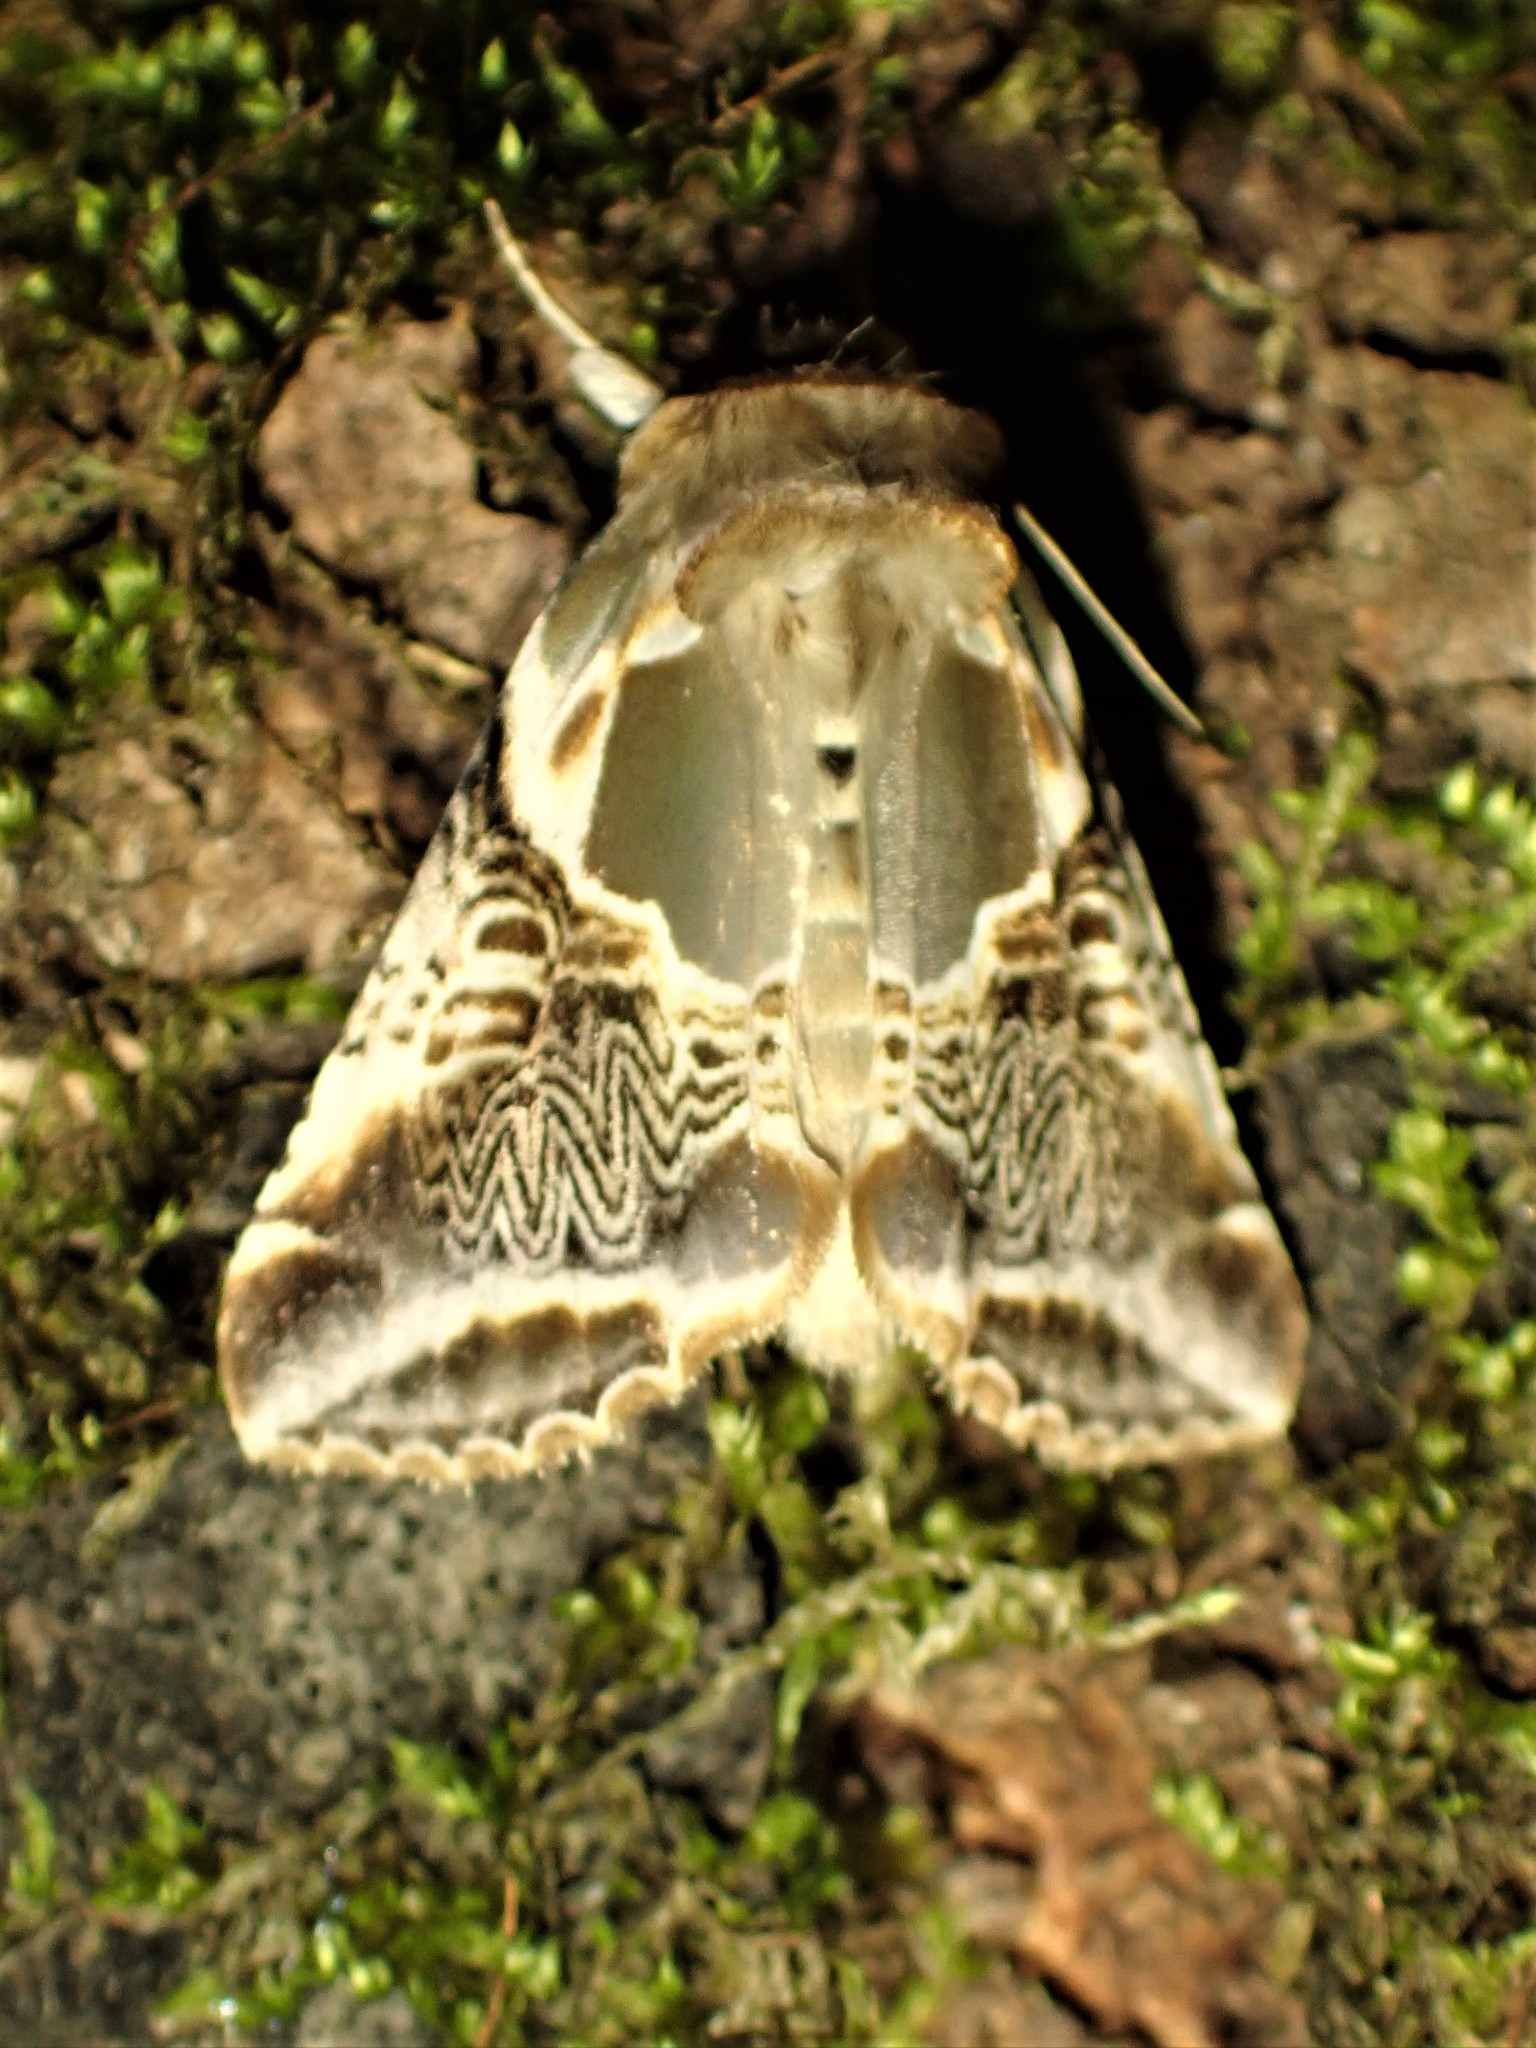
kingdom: Animalia
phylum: Arthropoda
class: Insecta
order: Lepidoptera
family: Drepanidae
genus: Habrosyne
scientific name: Habrosyne scripta
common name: Lettered habrosyne moth
